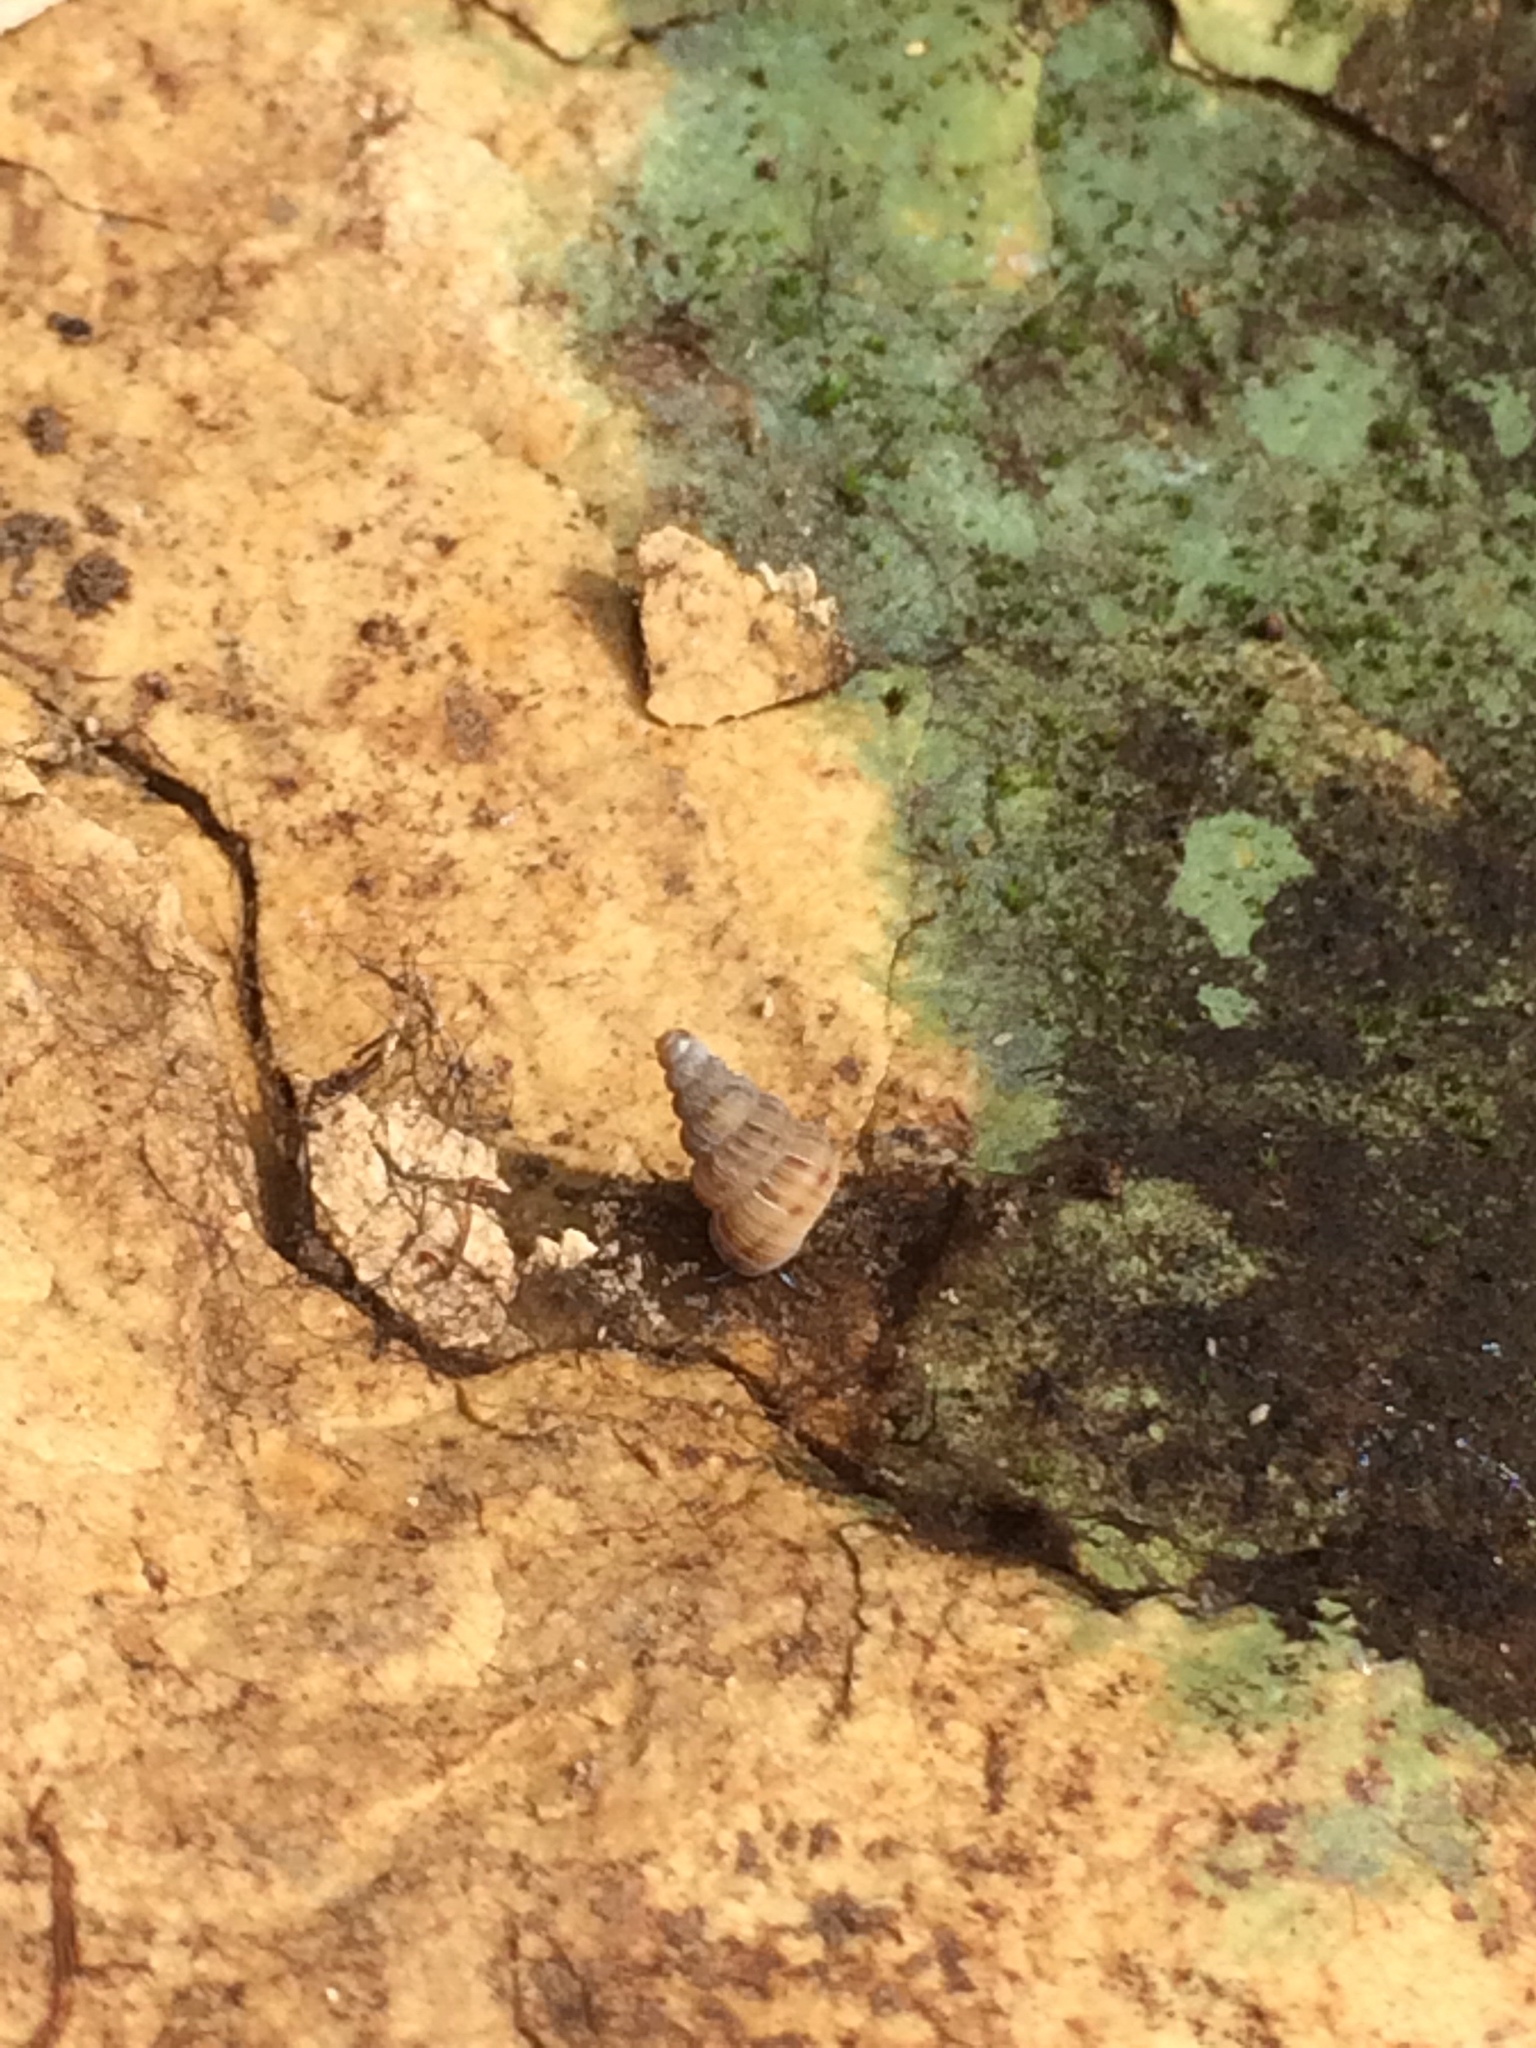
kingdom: Animalia
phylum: Mollusca
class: Gastropoda
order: Architaenioglossa
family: Cochlostomatidae
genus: Cochlostoma
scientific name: Cochlostoma septemspirale
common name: Seven-whorl snail
